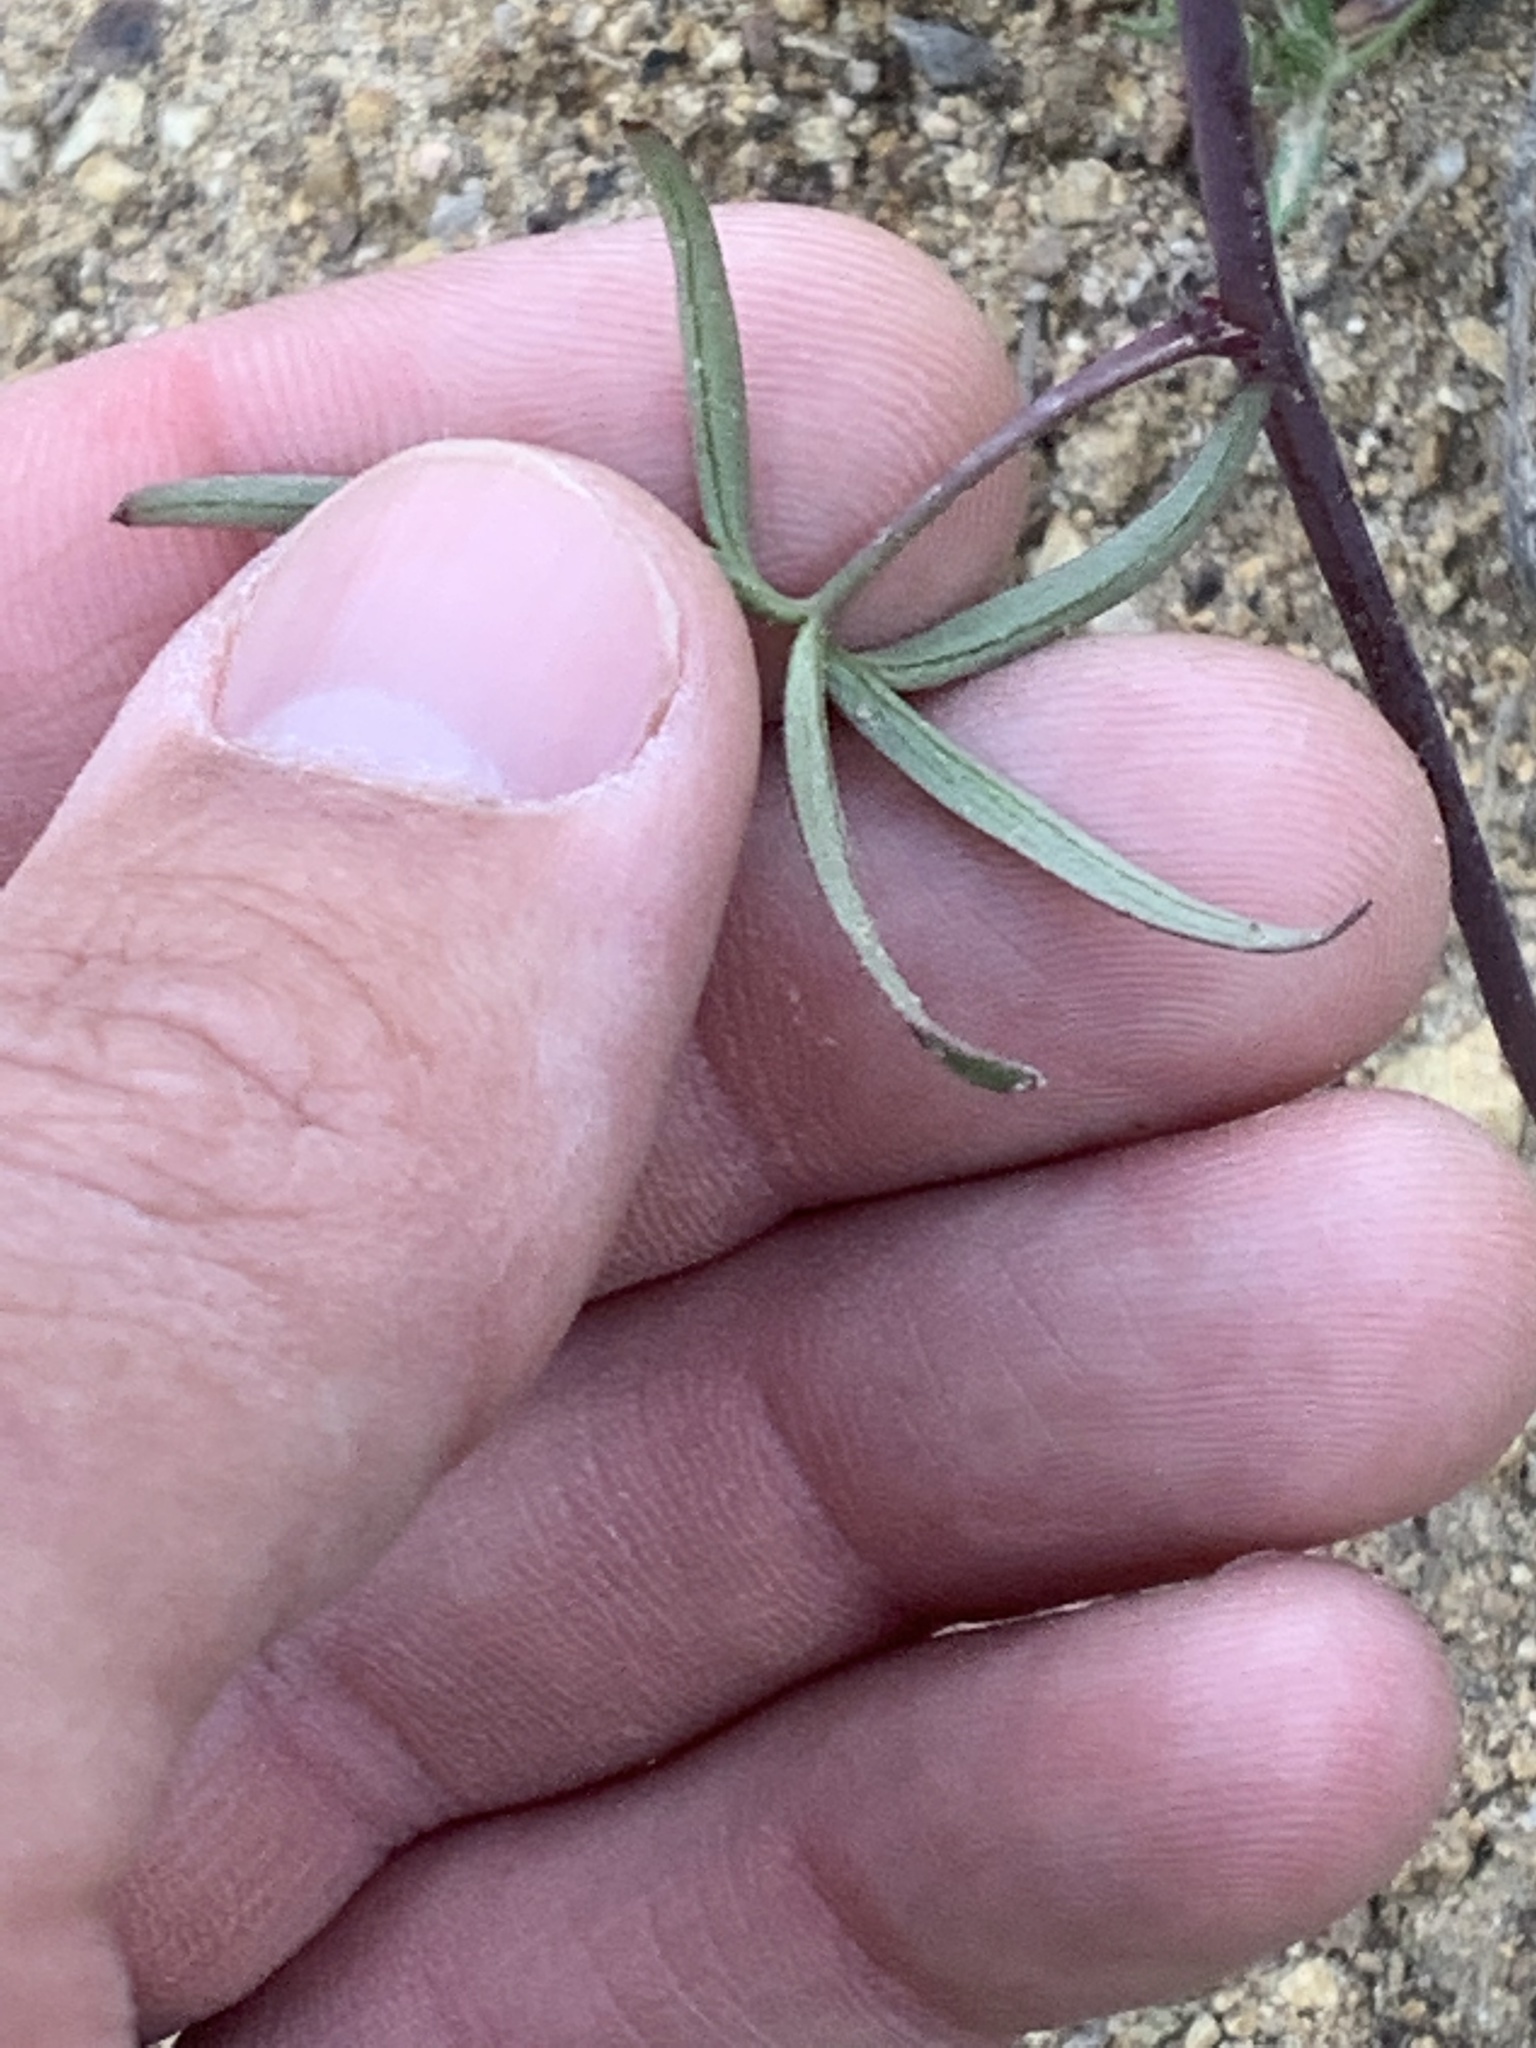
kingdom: Plantae
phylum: Tracheophyta
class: Magnoliopsida
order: Ranunculales
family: Ranunculaceae
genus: Delphinium
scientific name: Delphinium lineapetalum
